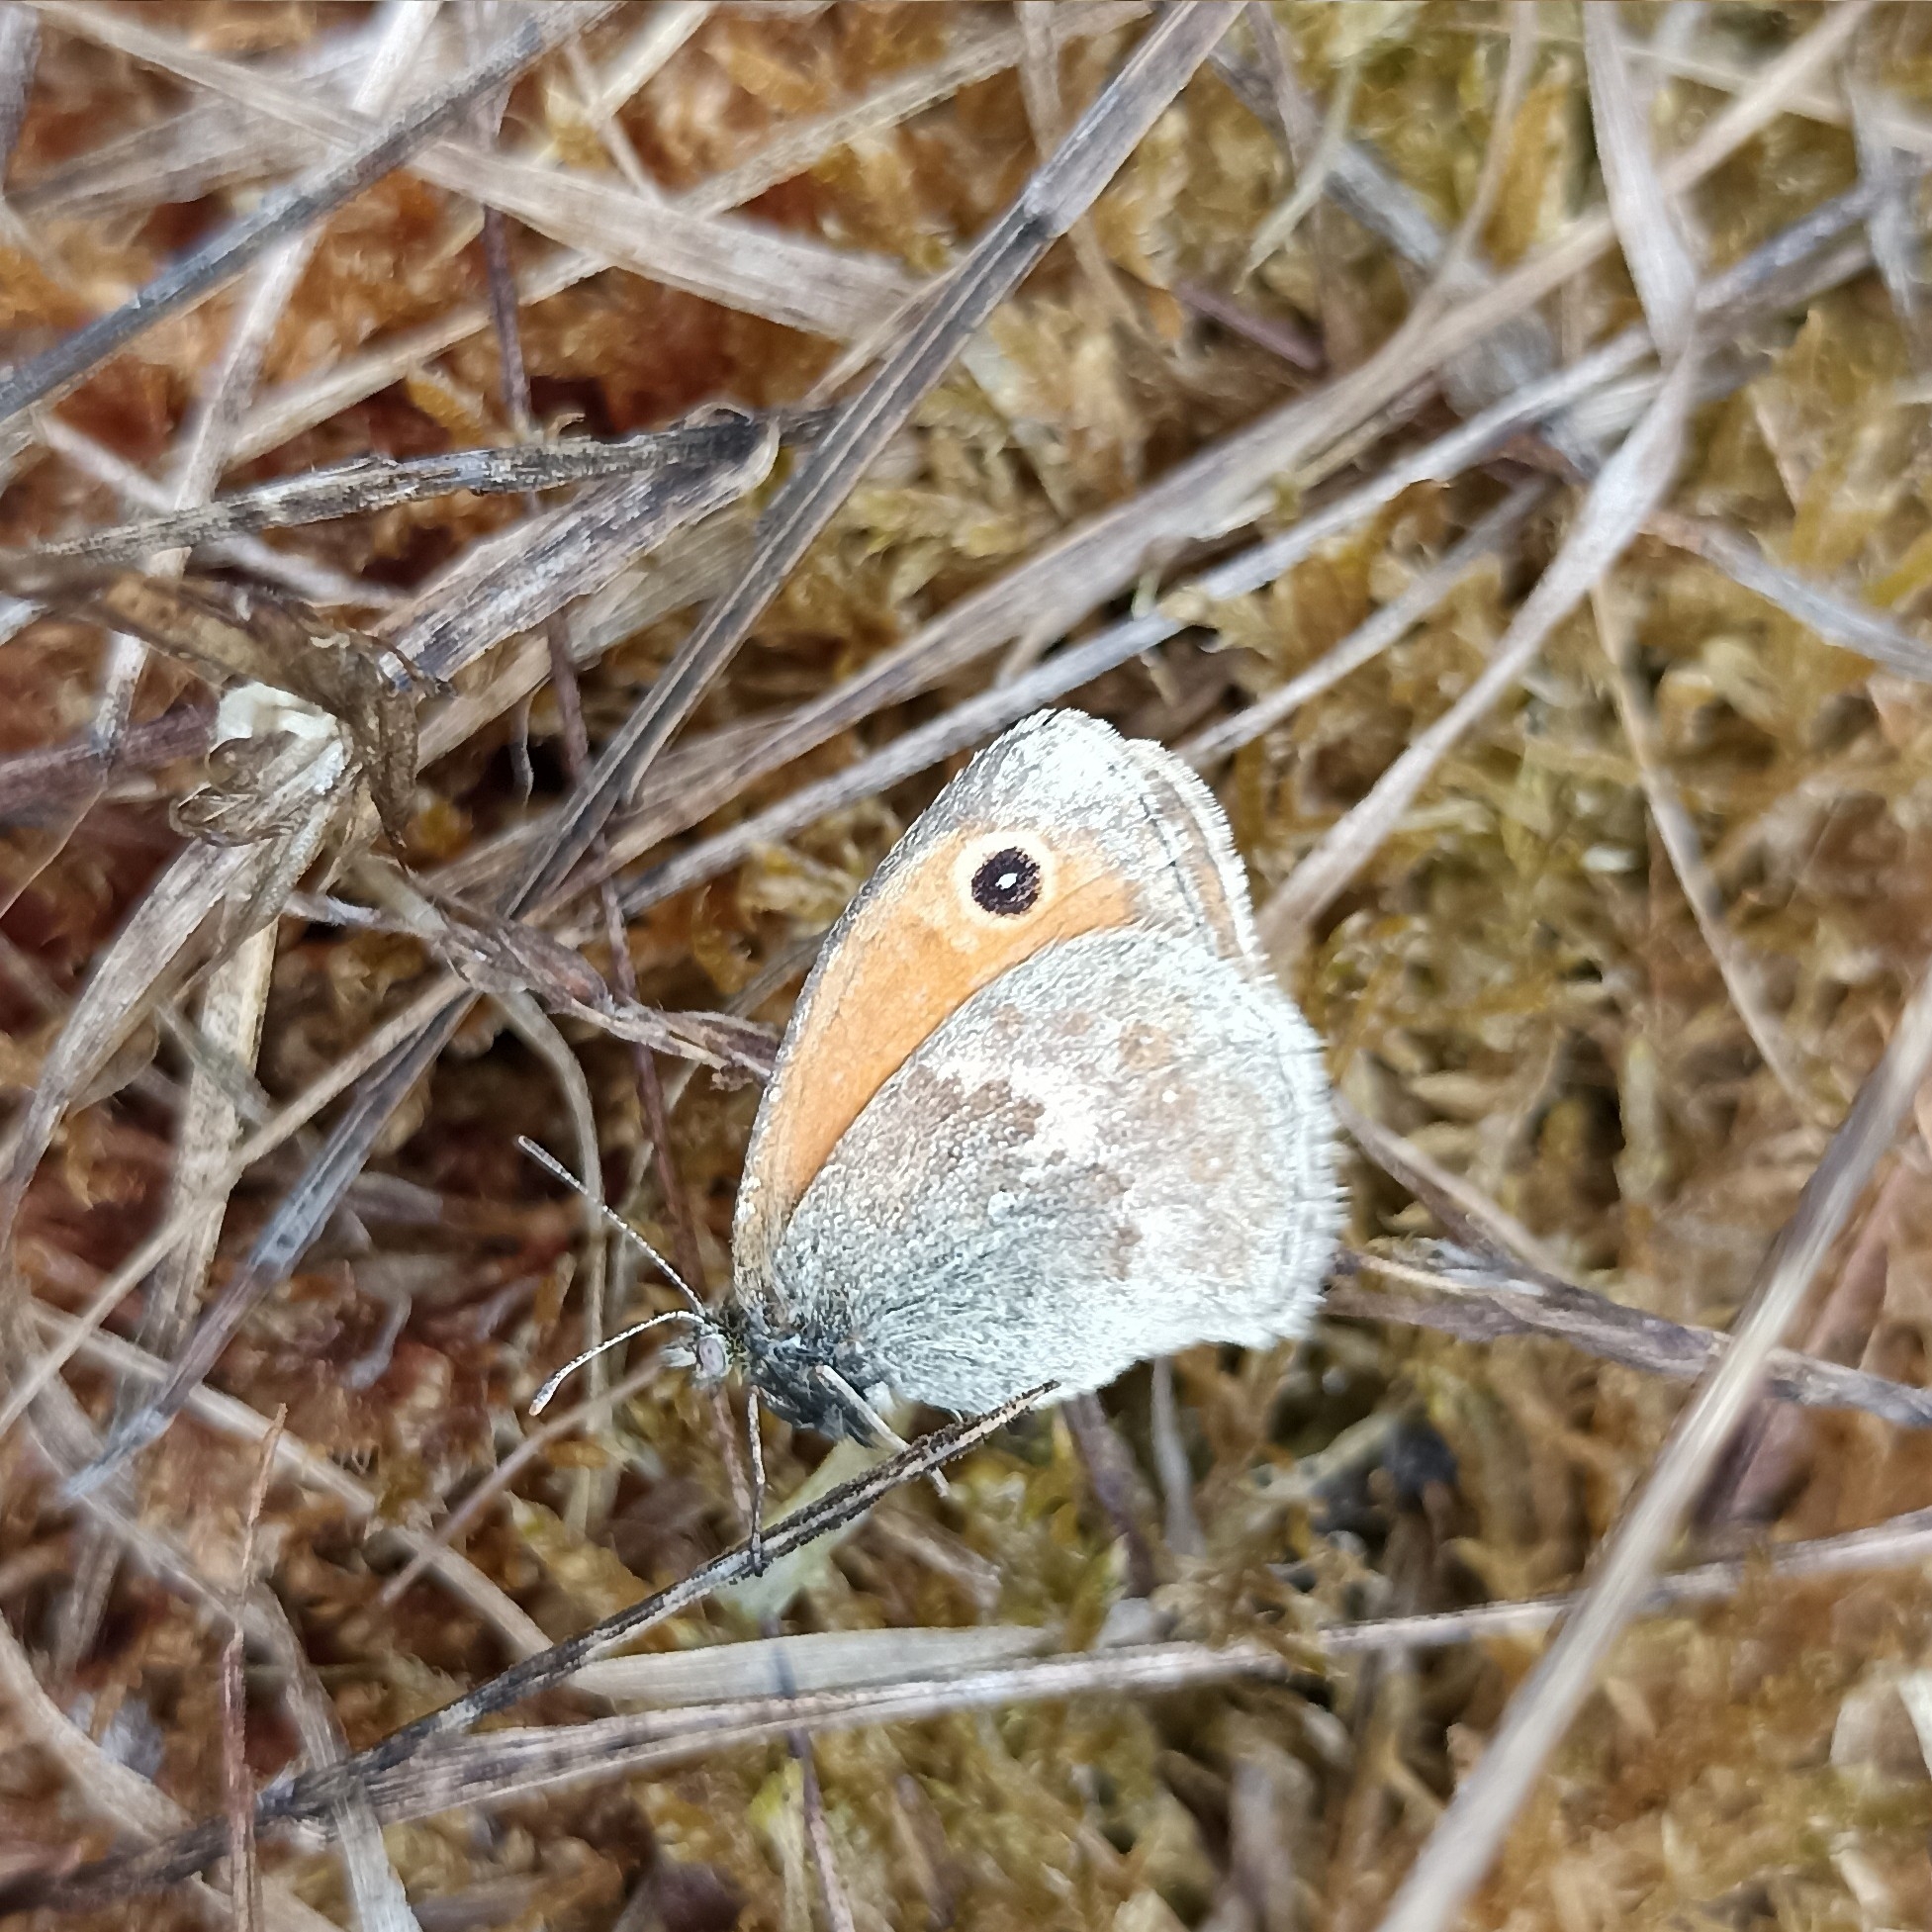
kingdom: Animalia
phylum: Arthropoda
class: Insecta
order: Lepidoptera
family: Nymphalidae
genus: Coenonympha
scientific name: Coenonympha pamphilus
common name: Small heath
